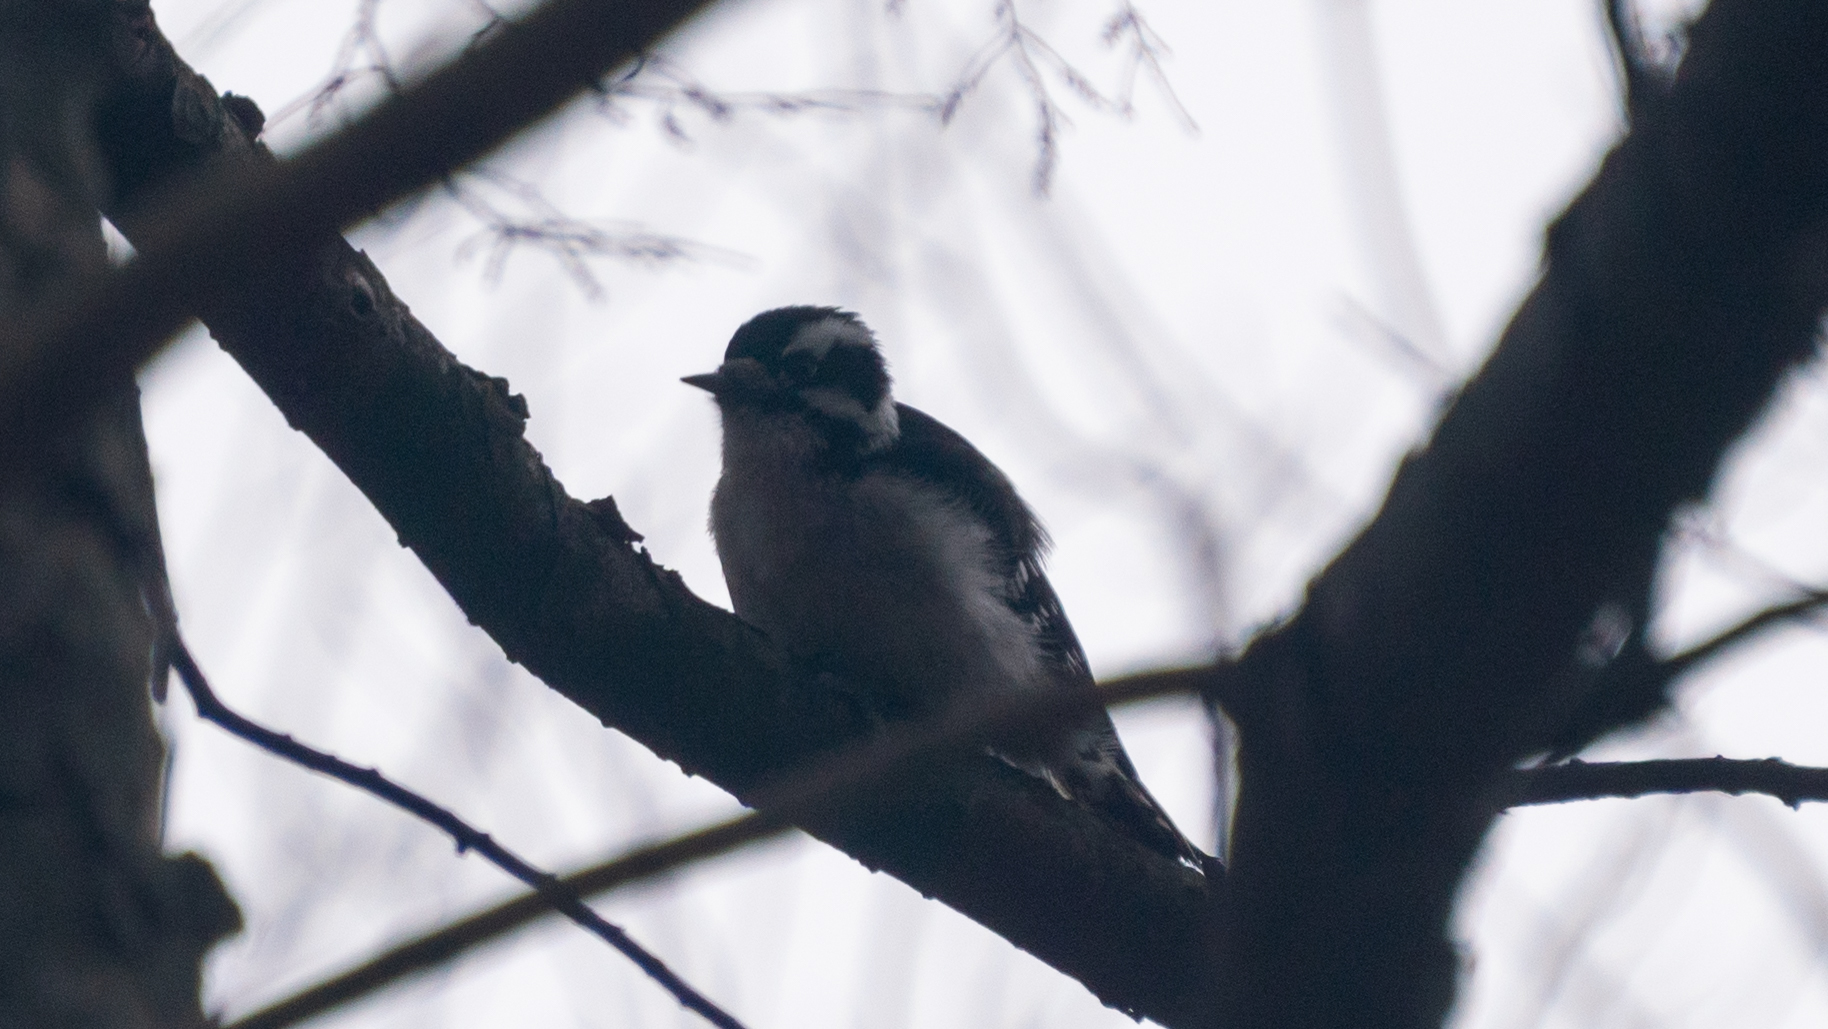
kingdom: Animalia
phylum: Chordata
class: Aves
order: Piciformes
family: Picidae
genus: Dryobates
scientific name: Dryobates pubescens
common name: Downy woodpecker
